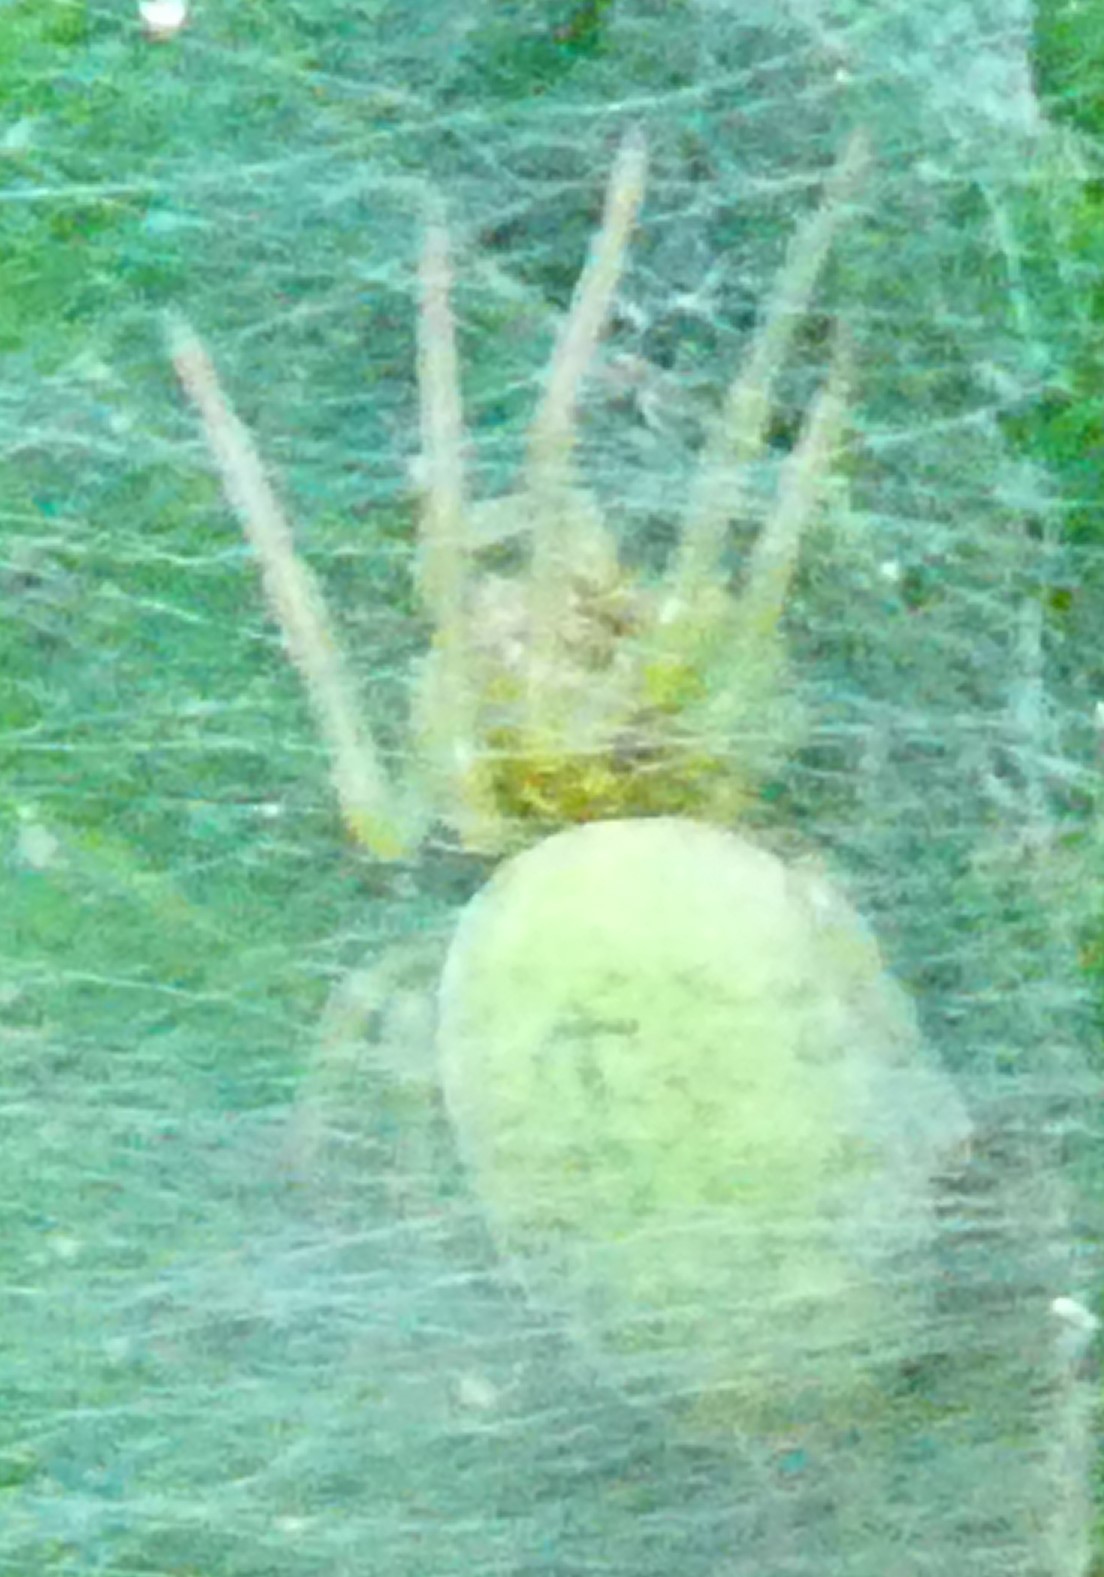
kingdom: Animalia
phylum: Arthropoda
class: Arachnida
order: Araneae
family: Dictynidae
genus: Nigma
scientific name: Nigma walckenaeri
